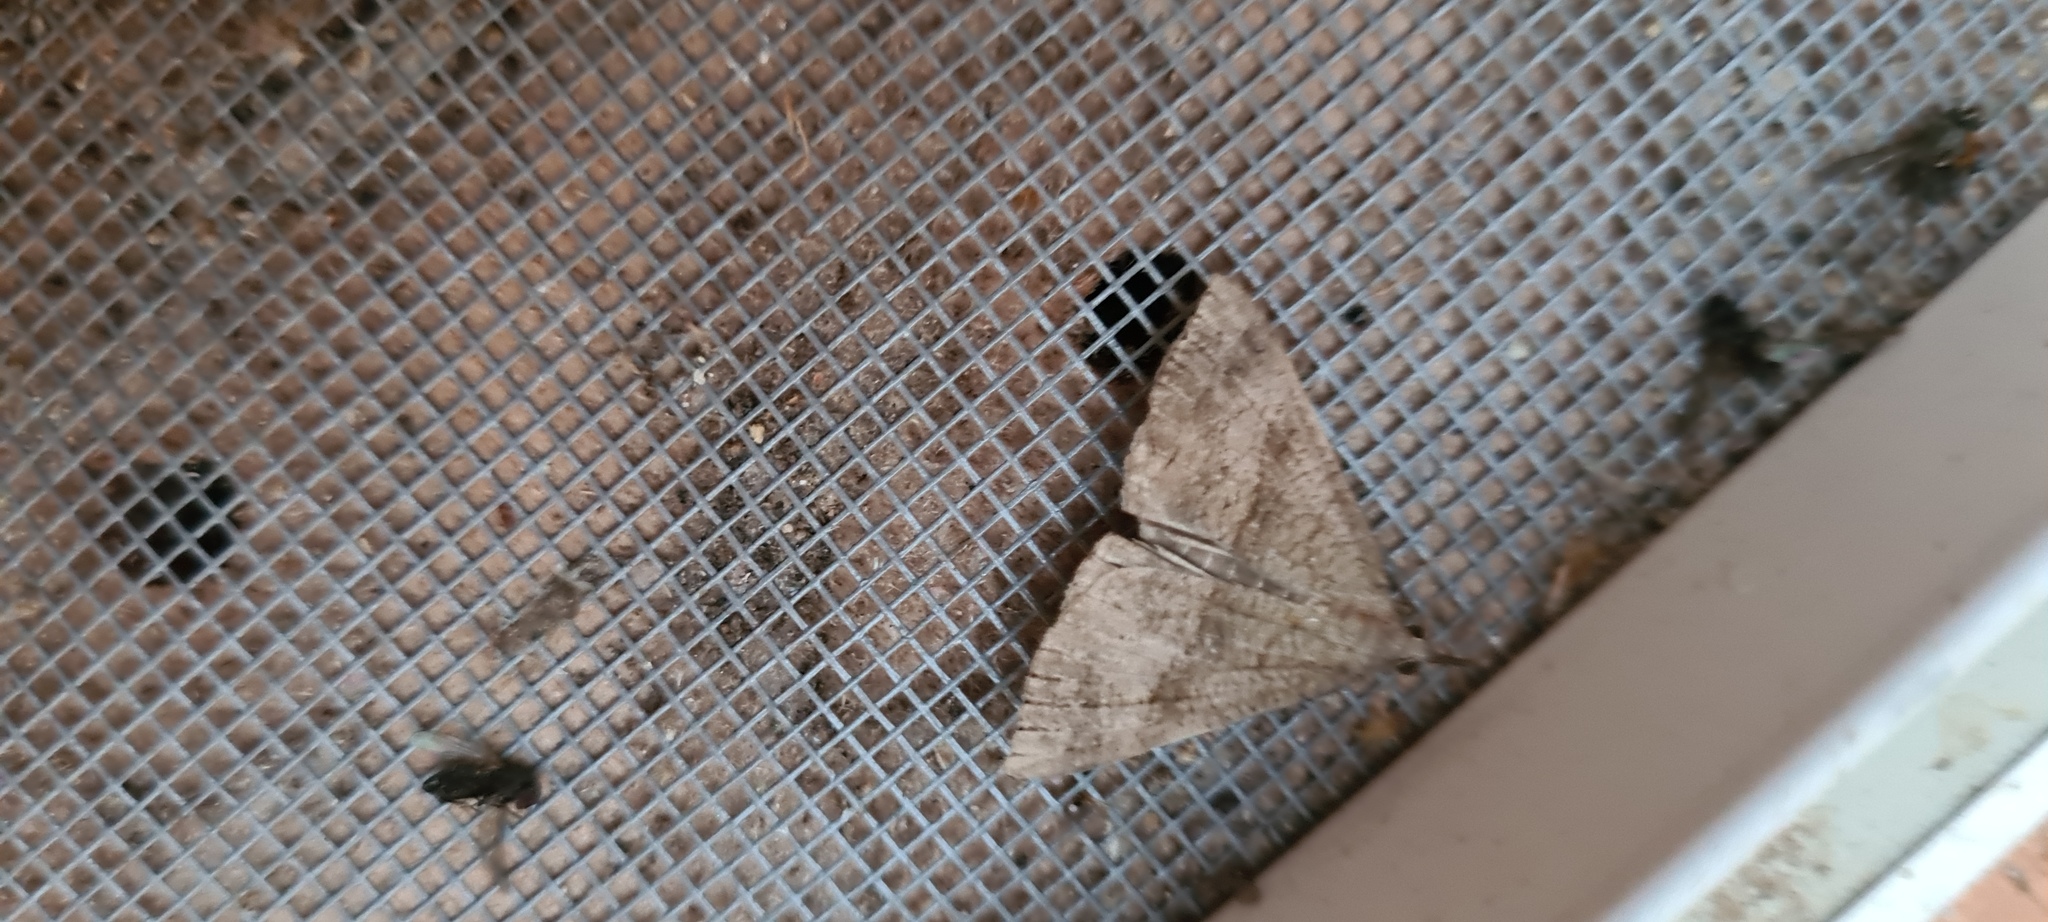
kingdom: Animalia
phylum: Arthropoda
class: Insecta
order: Lepidoptera
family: Erebidae
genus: Hypena
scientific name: Hypena proboscidalis
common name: Snout
